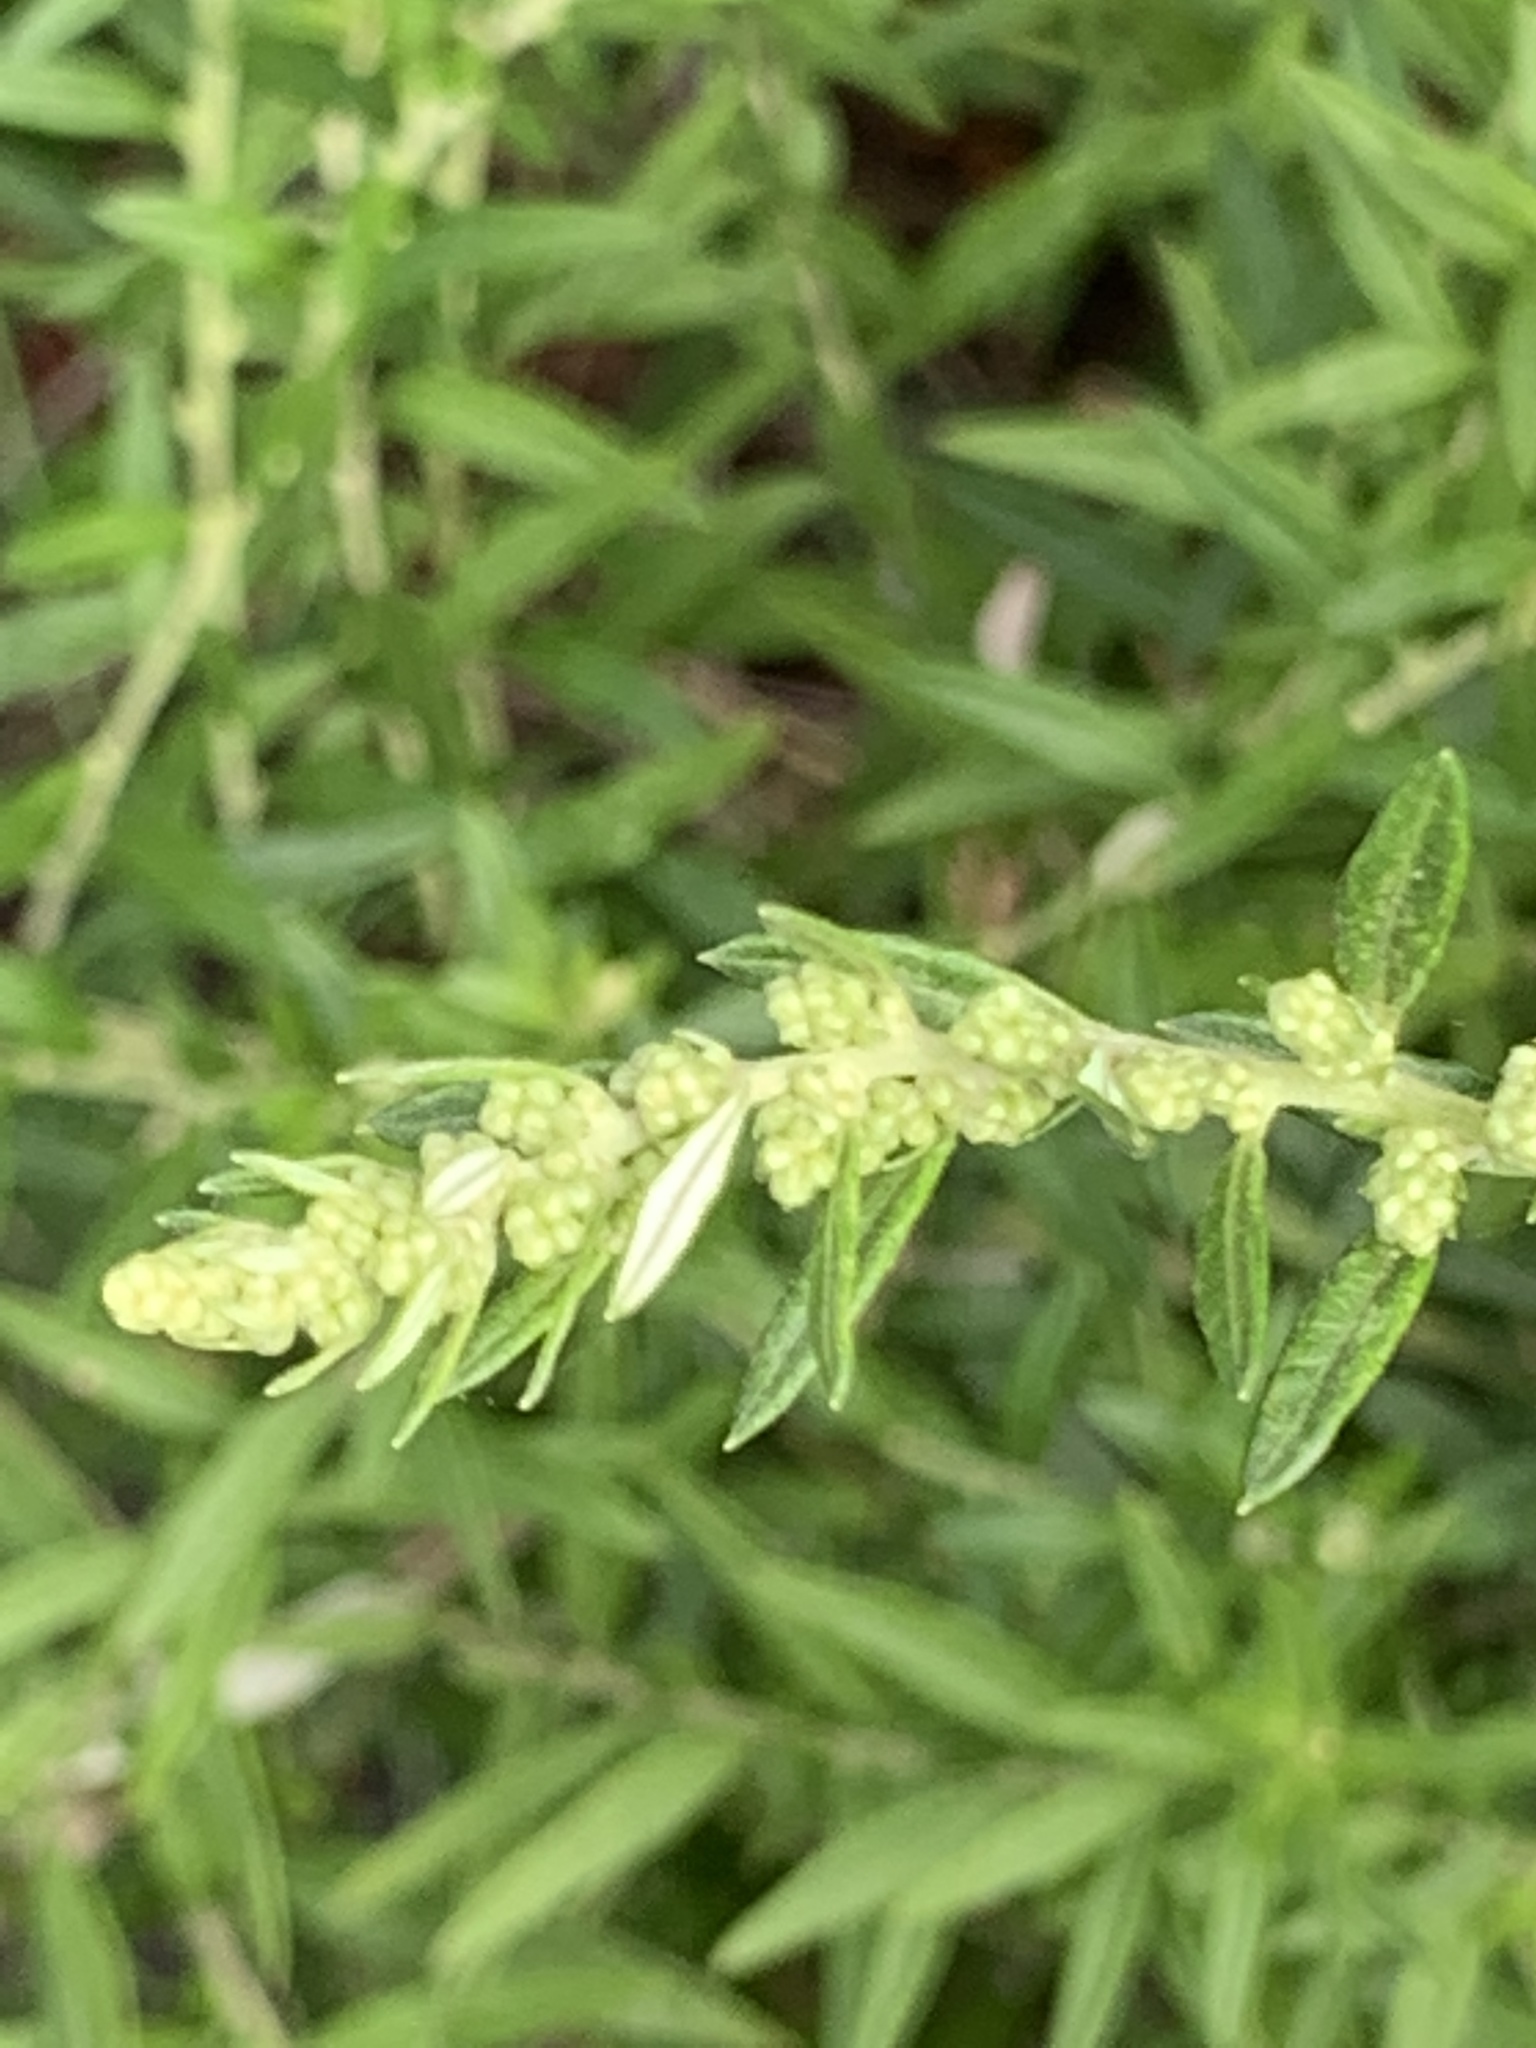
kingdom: Plantae
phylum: Tracheophyta
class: Magnoliopsida
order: Asterales
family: Asteraceae
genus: Artemisia
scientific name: Artemisia vulgaris
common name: Mugwort
